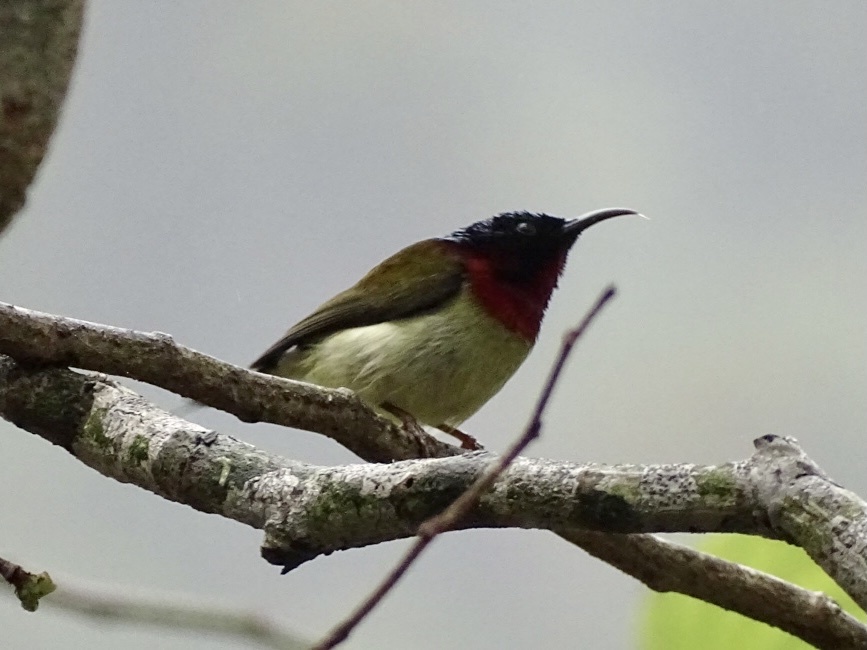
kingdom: Animalia
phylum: Chordata
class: Aves
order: Passeriformes
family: Nectariniidae
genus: Aethopyga
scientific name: Aethopyga christinae
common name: Fork-tailed sunbird
